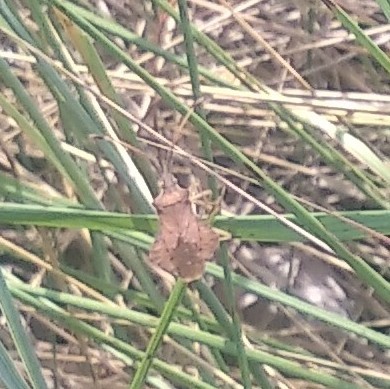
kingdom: Animalia
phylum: Arthropoda
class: Insecta
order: Hemiptera
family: Coreidae
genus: Syromastus
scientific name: Syromastus rhombeus
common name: Rhombic leatherbug
